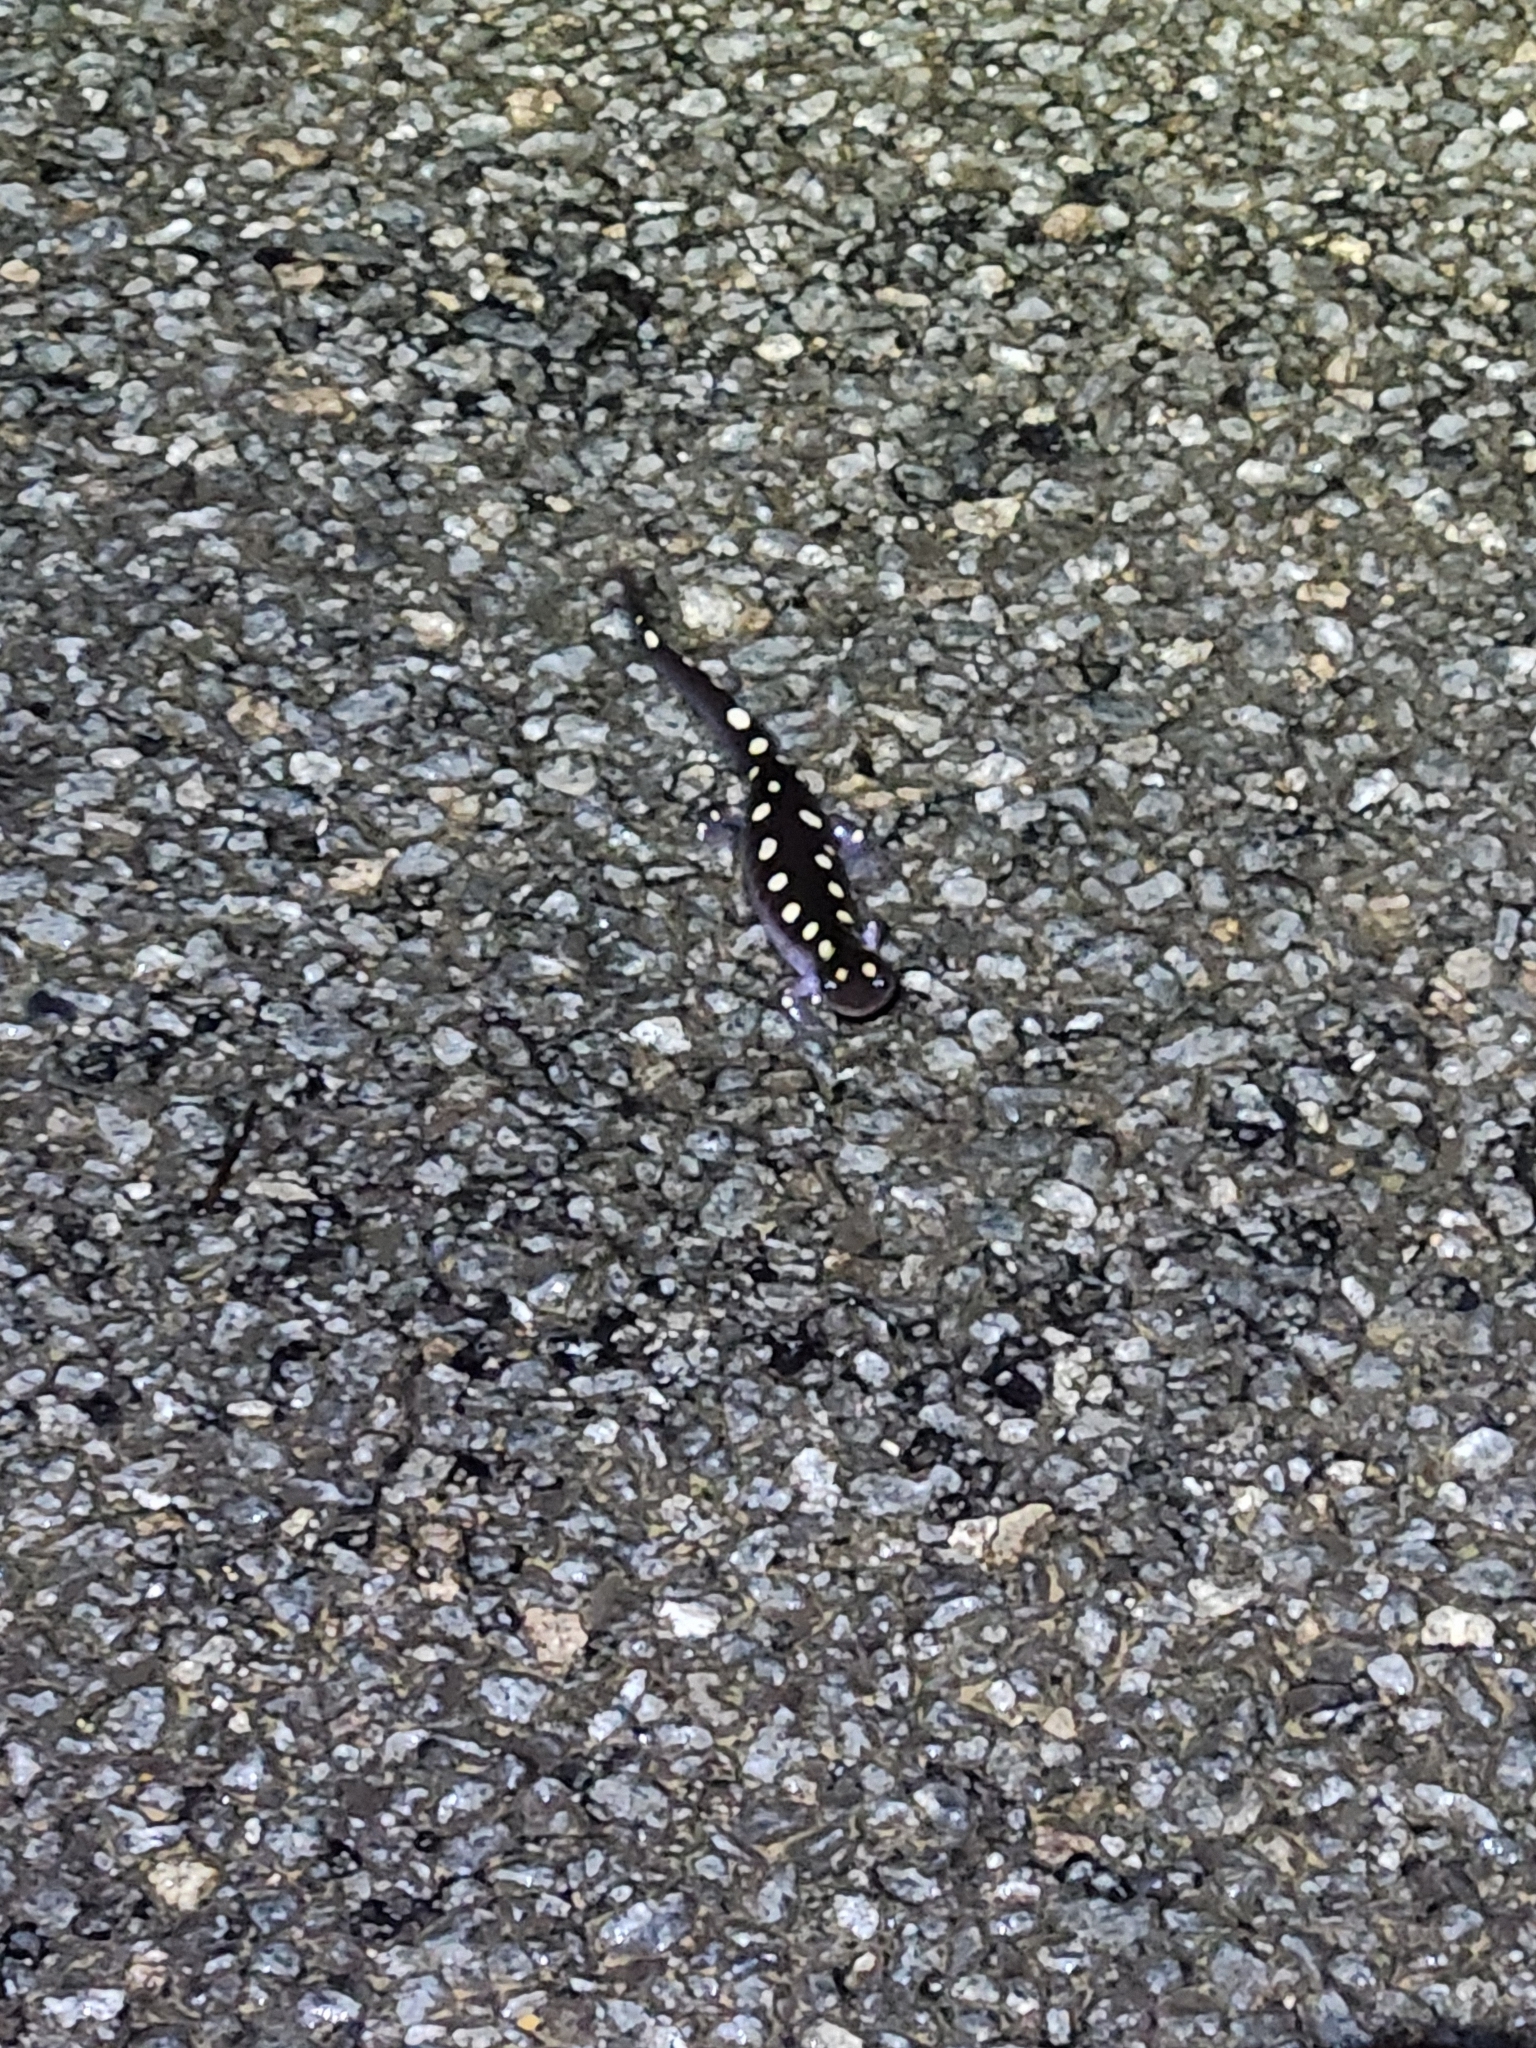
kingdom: Animalia
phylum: Chordata
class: Amphibia
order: Caudata
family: Ambystomatidae
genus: Ambystoma
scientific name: Ambystoma maculatum
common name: Spotted salamander
